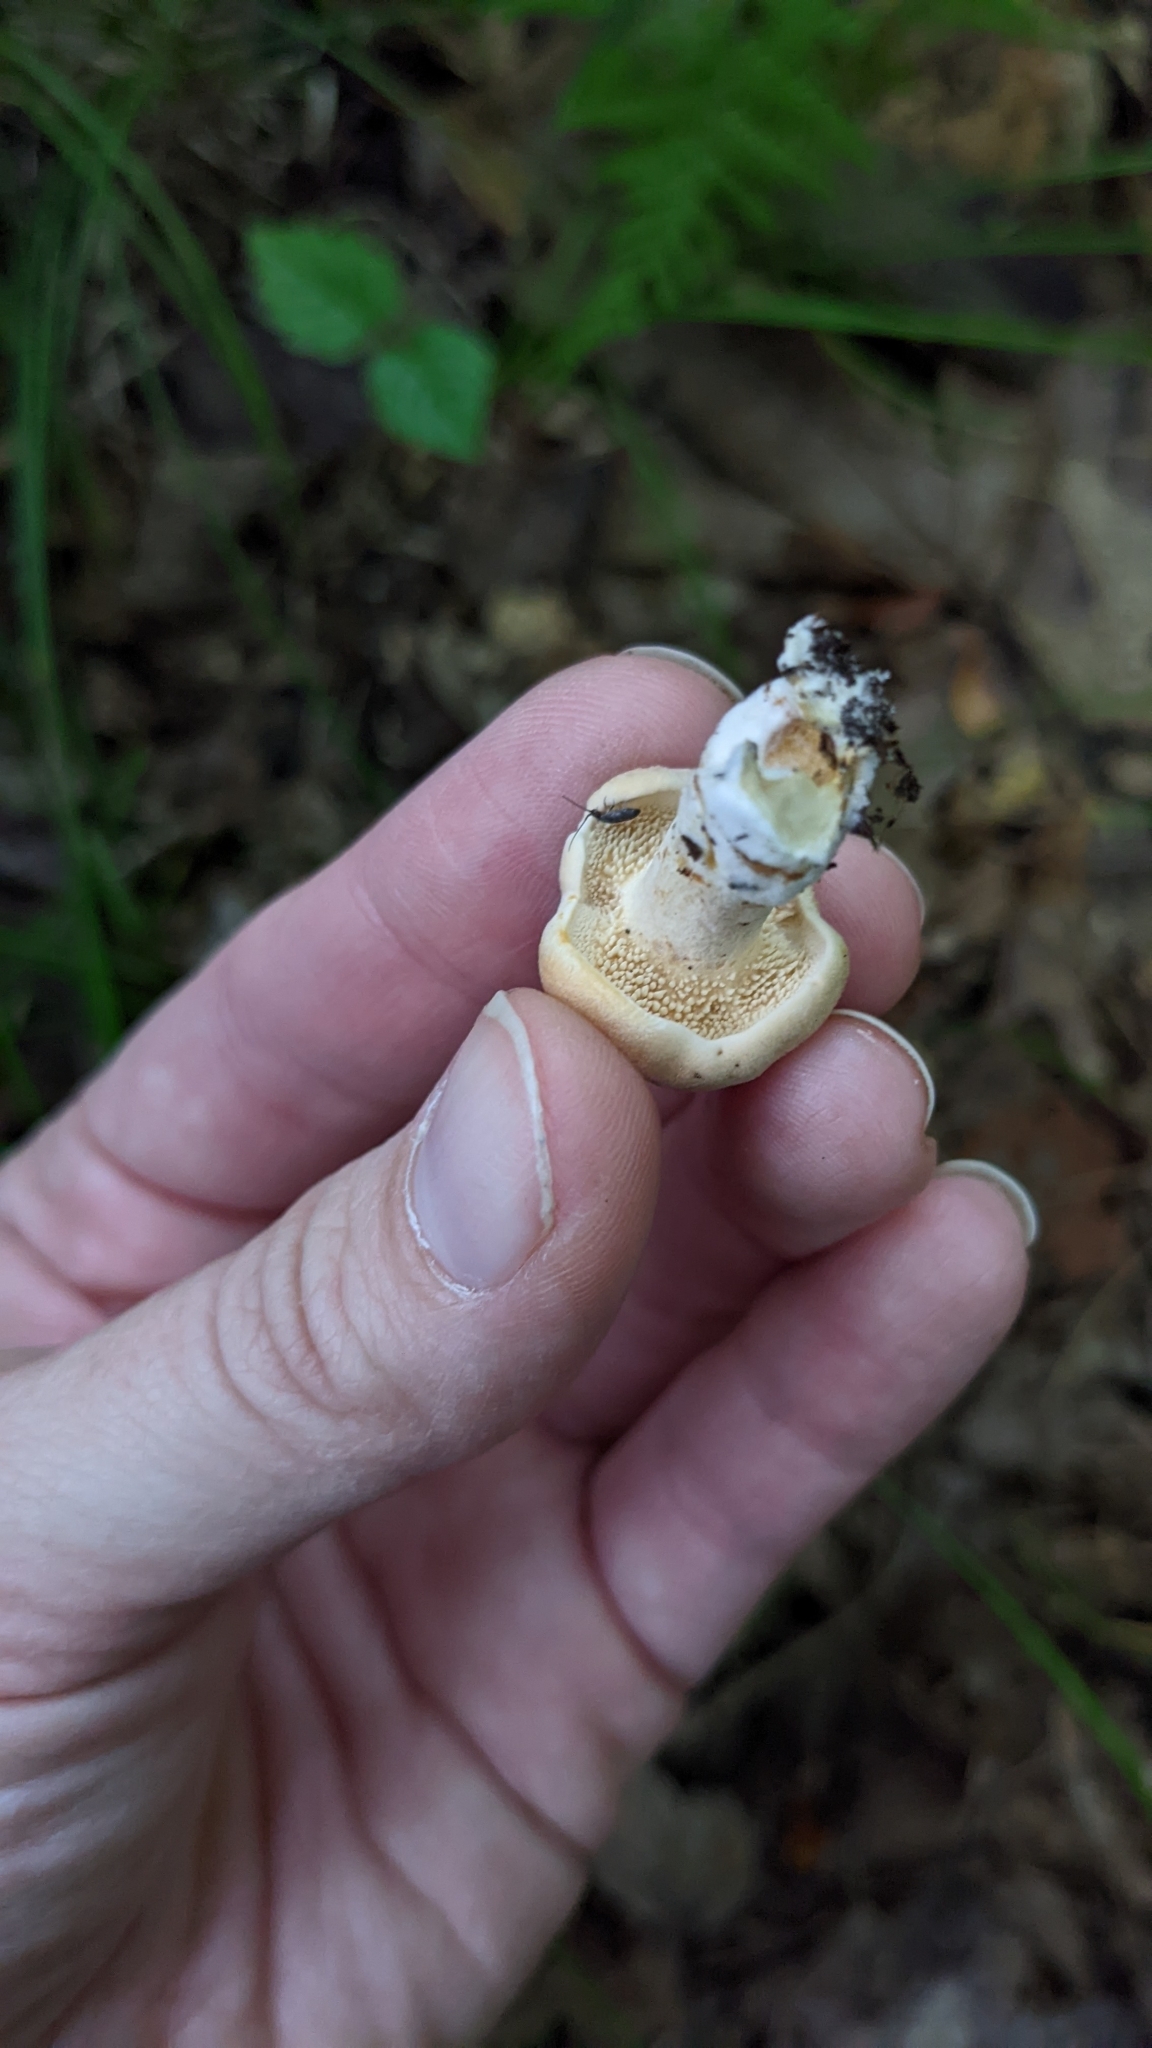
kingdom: Fungi
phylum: Basidiomycota
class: Agaricomycetes
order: Cantharellales
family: Hydnaceae
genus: Hydnum
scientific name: Hydnum cuspidatum
